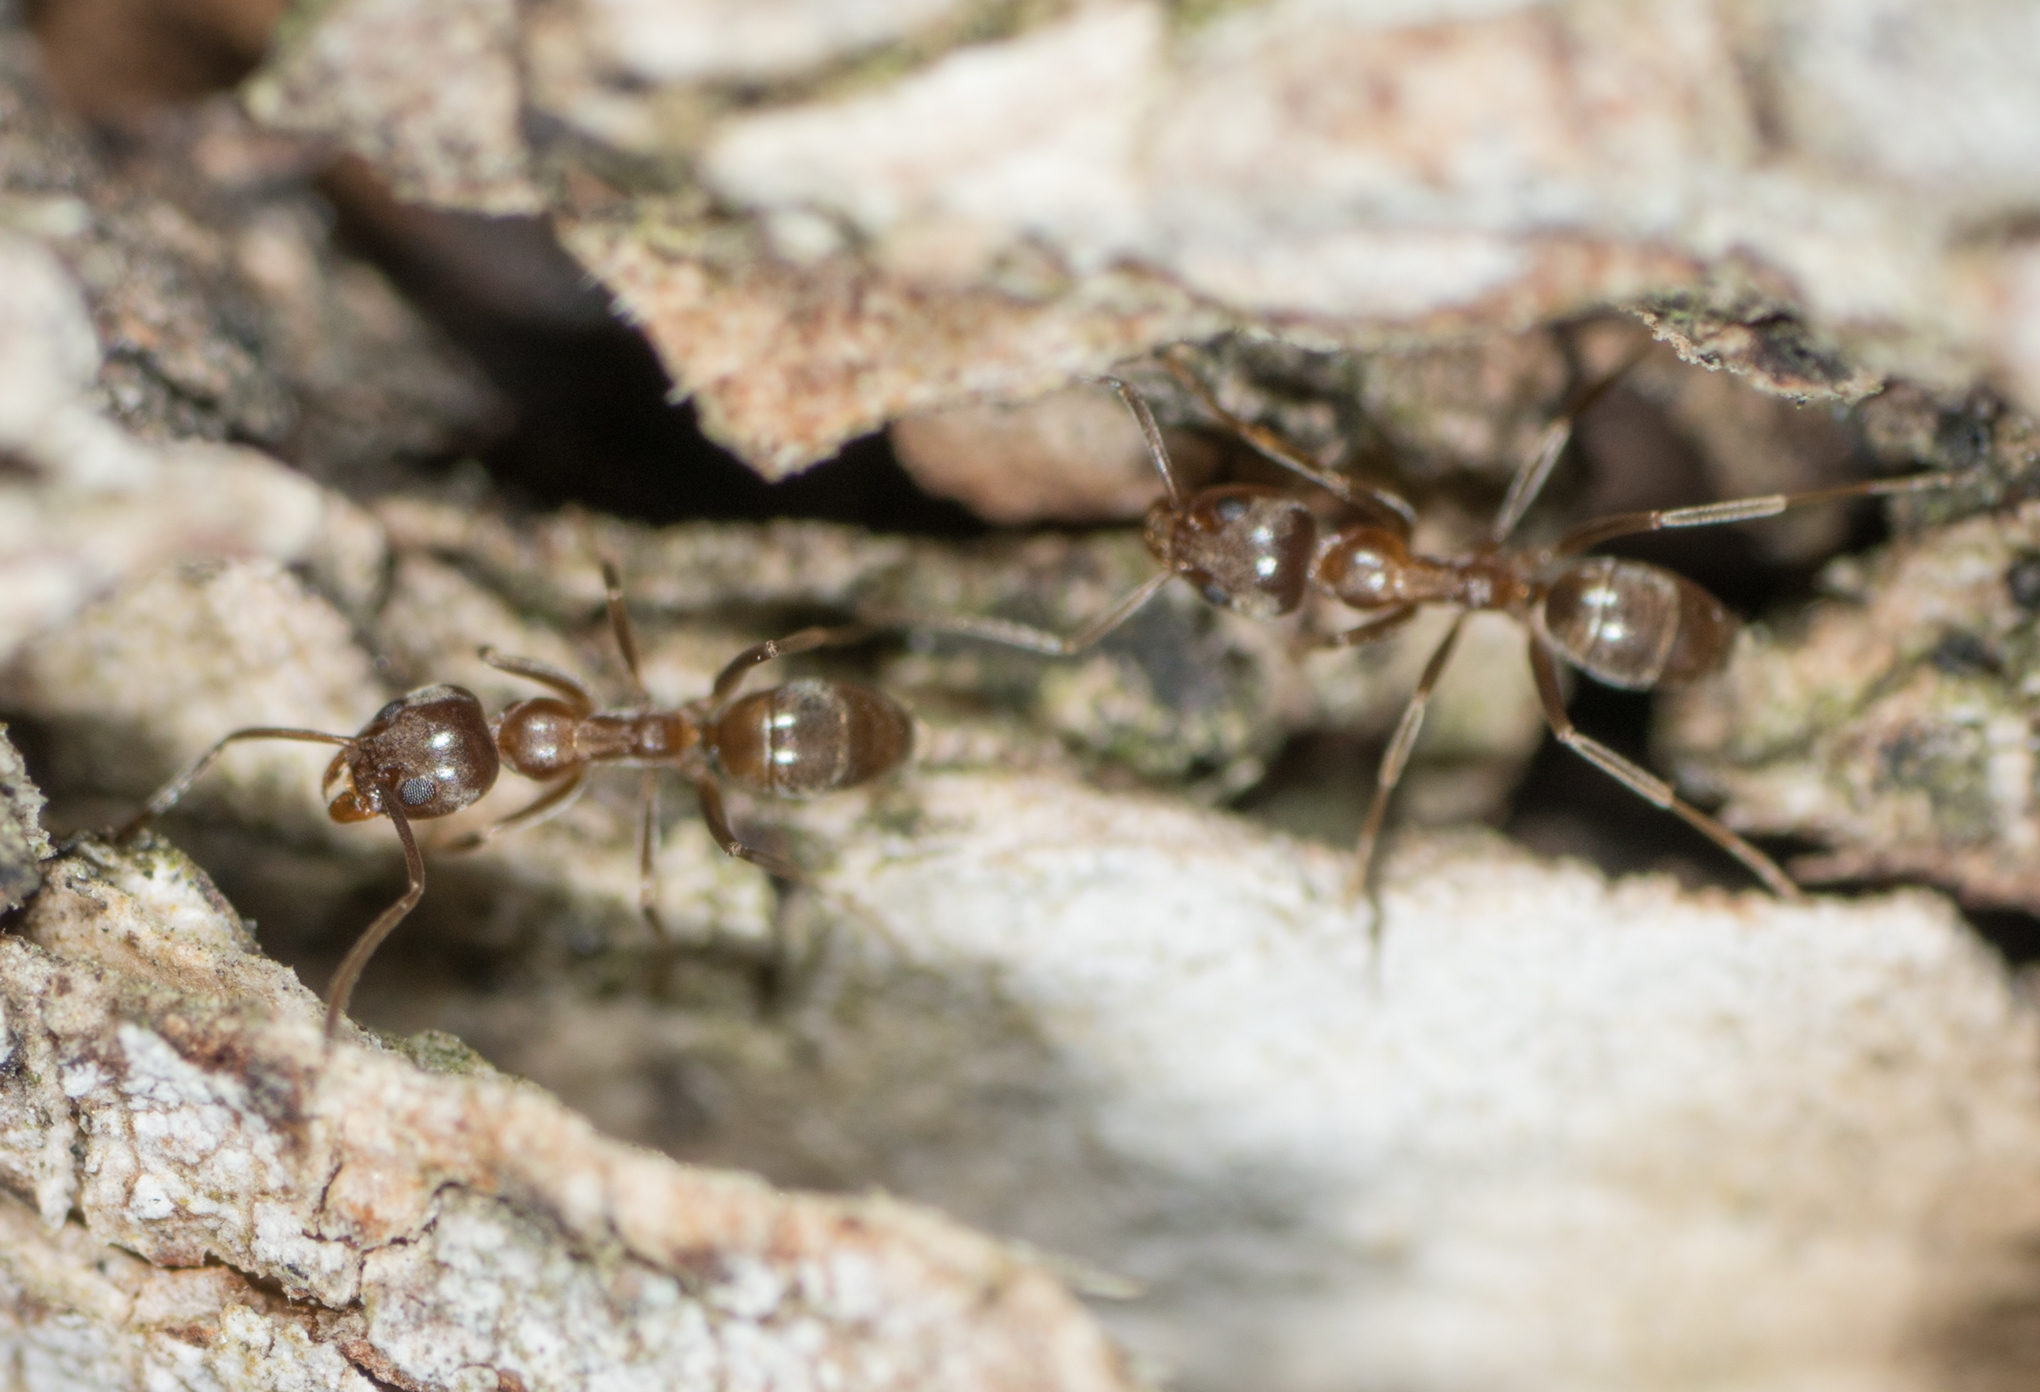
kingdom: Animalia
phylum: Arthropoda
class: Insecta
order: Hymenoptera
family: Formicidae
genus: Linepithema
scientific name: Linepithema humile
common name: Argentine ant
